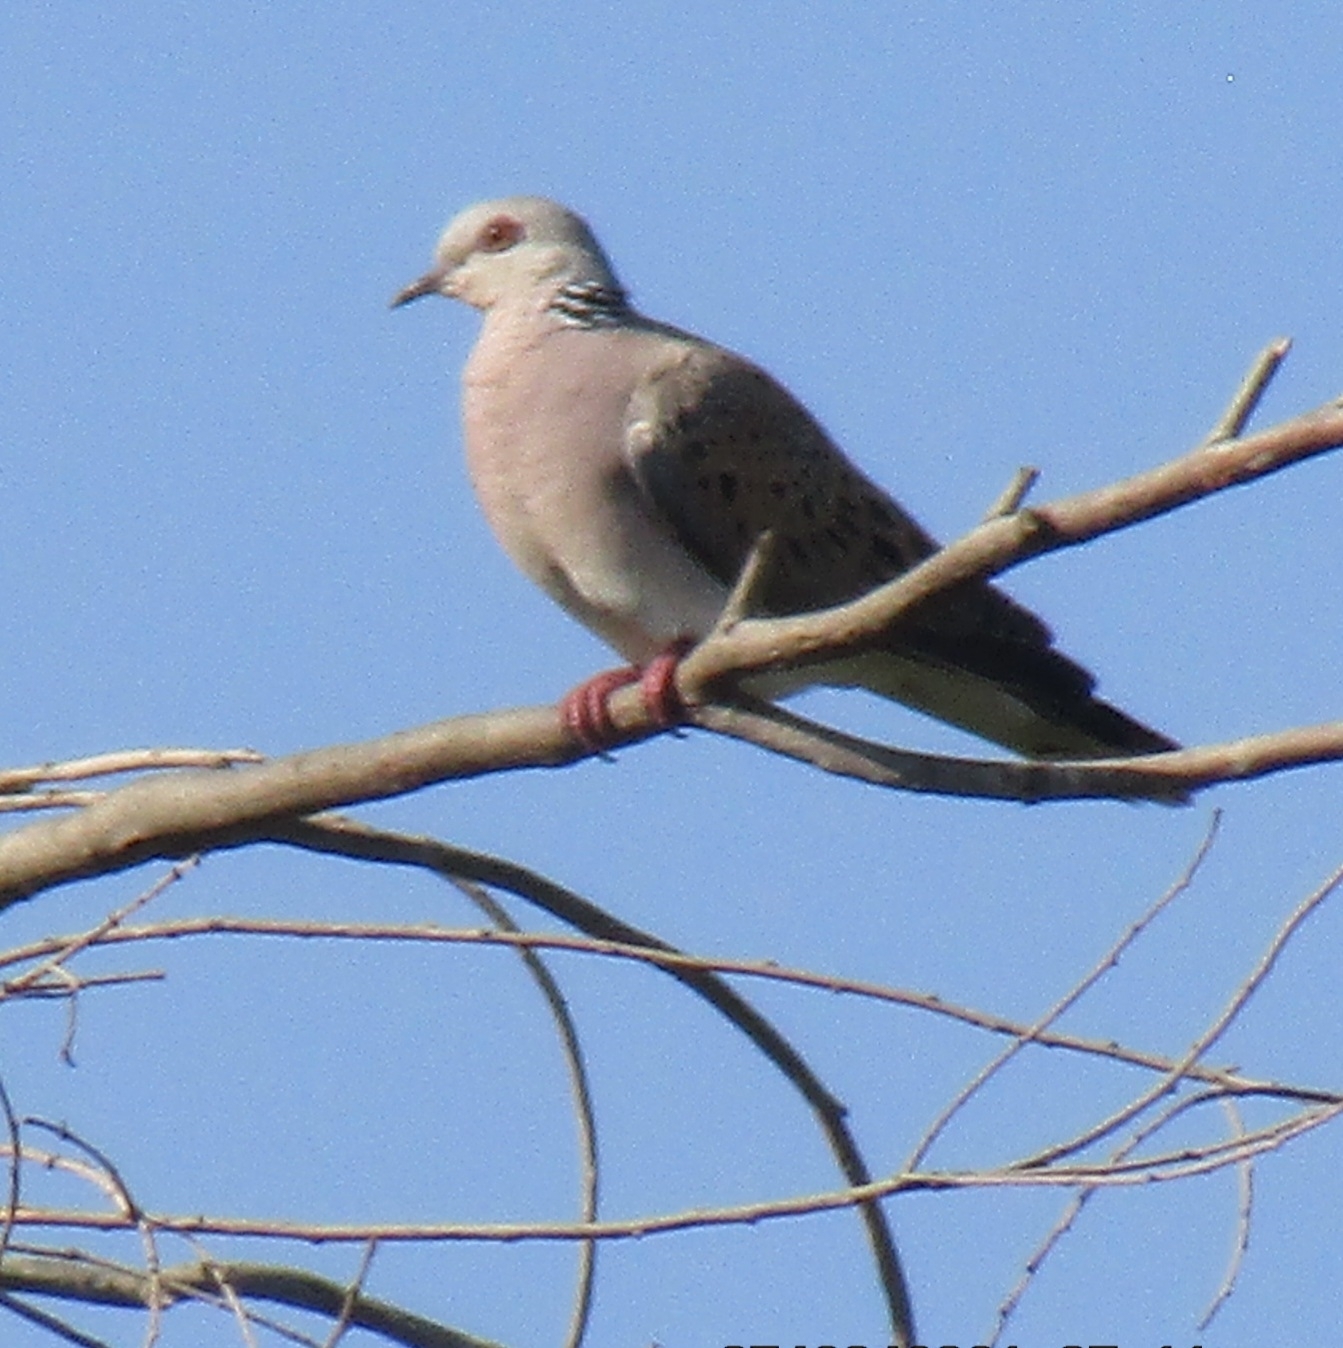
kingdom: Animalia
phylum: Chordata
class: Aves
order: Columbiformes
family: Columbidae
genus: Streptopelia
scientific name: Streptopelia turtur
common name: European turtle dove
